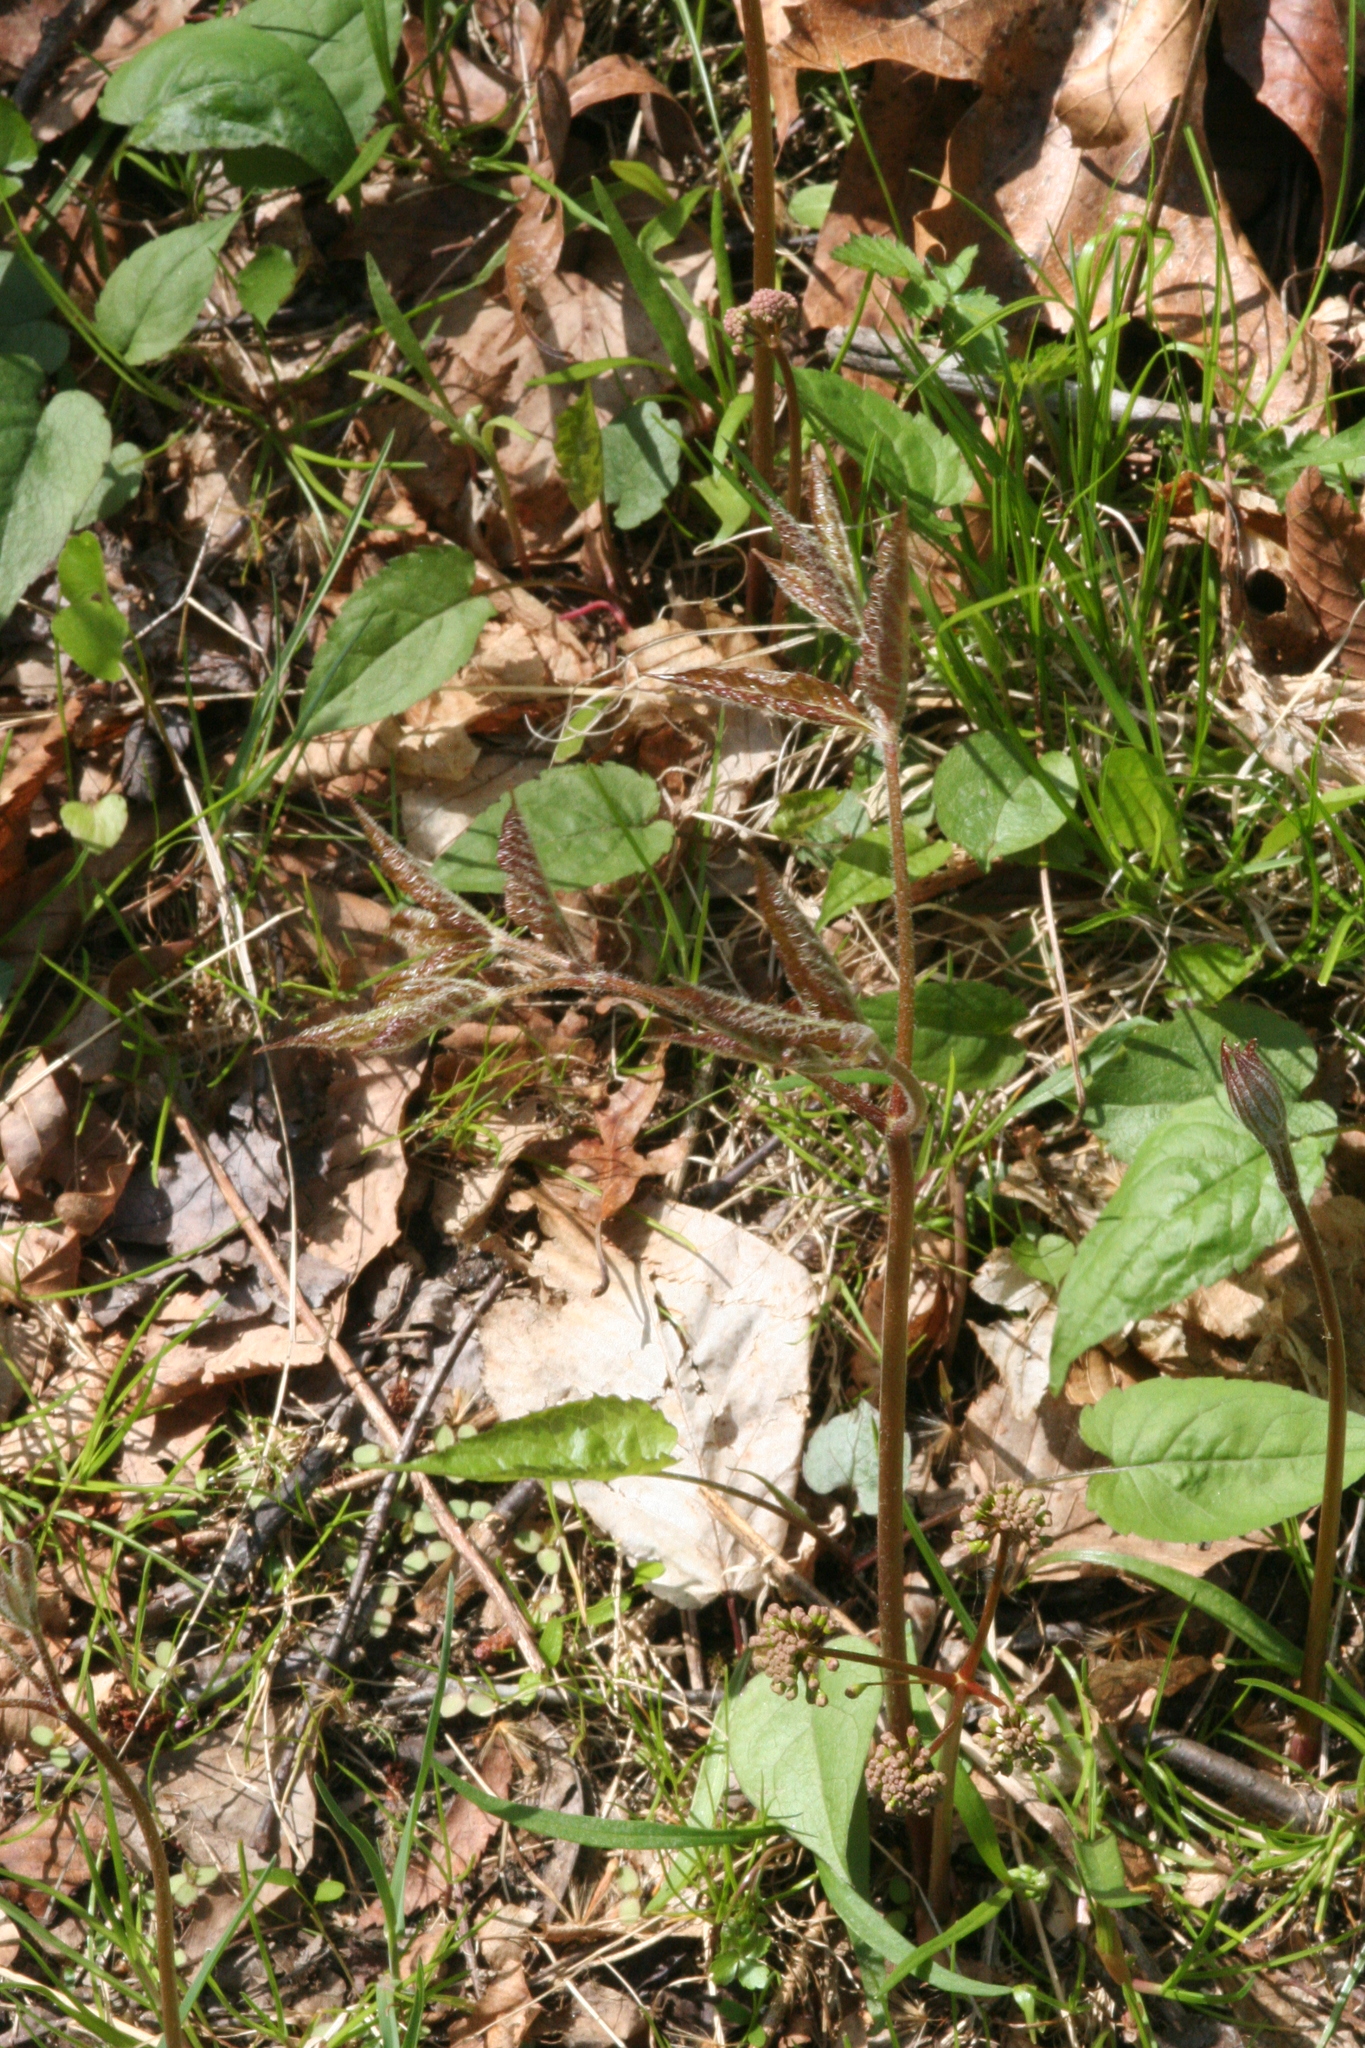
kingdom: Plantae
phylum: Tracheophyta
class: Magnoliopsida
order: Apiales
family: Araliaceae
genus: Aralia
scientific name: Aralia nudicaulis
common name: Wild sarsaparilla
